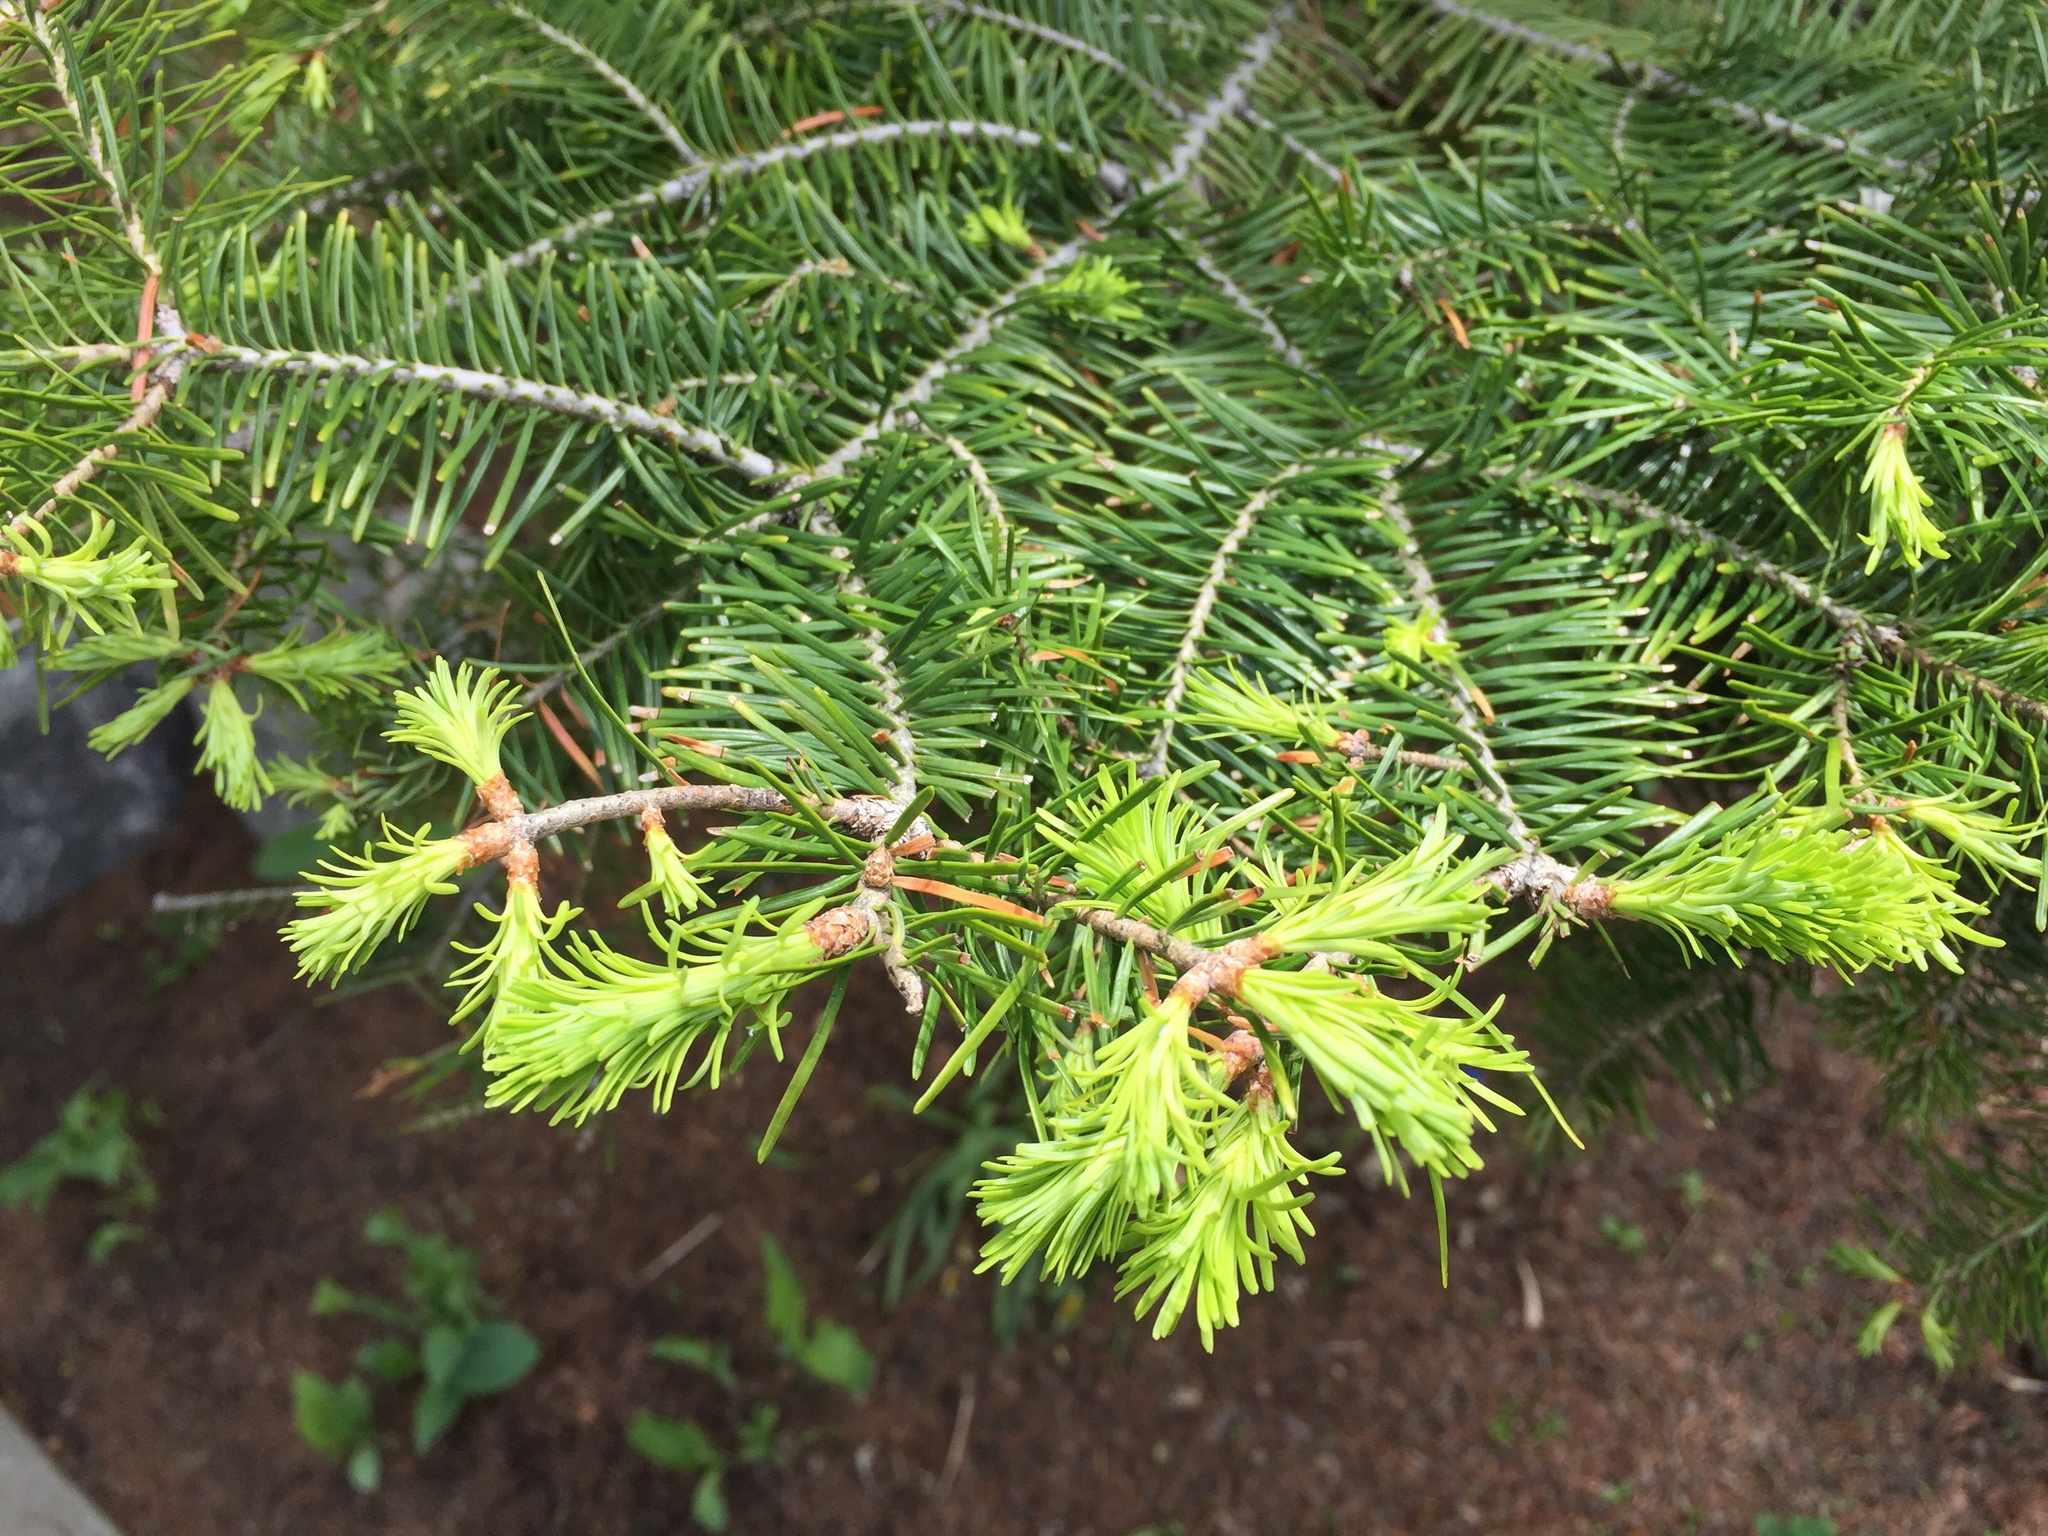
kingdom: Plantae
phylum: Tracheophyta
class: Pinopsida
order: Pinales
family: Pinaceae
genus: Abies
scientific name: Abies balsamea
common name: Balsam fir
